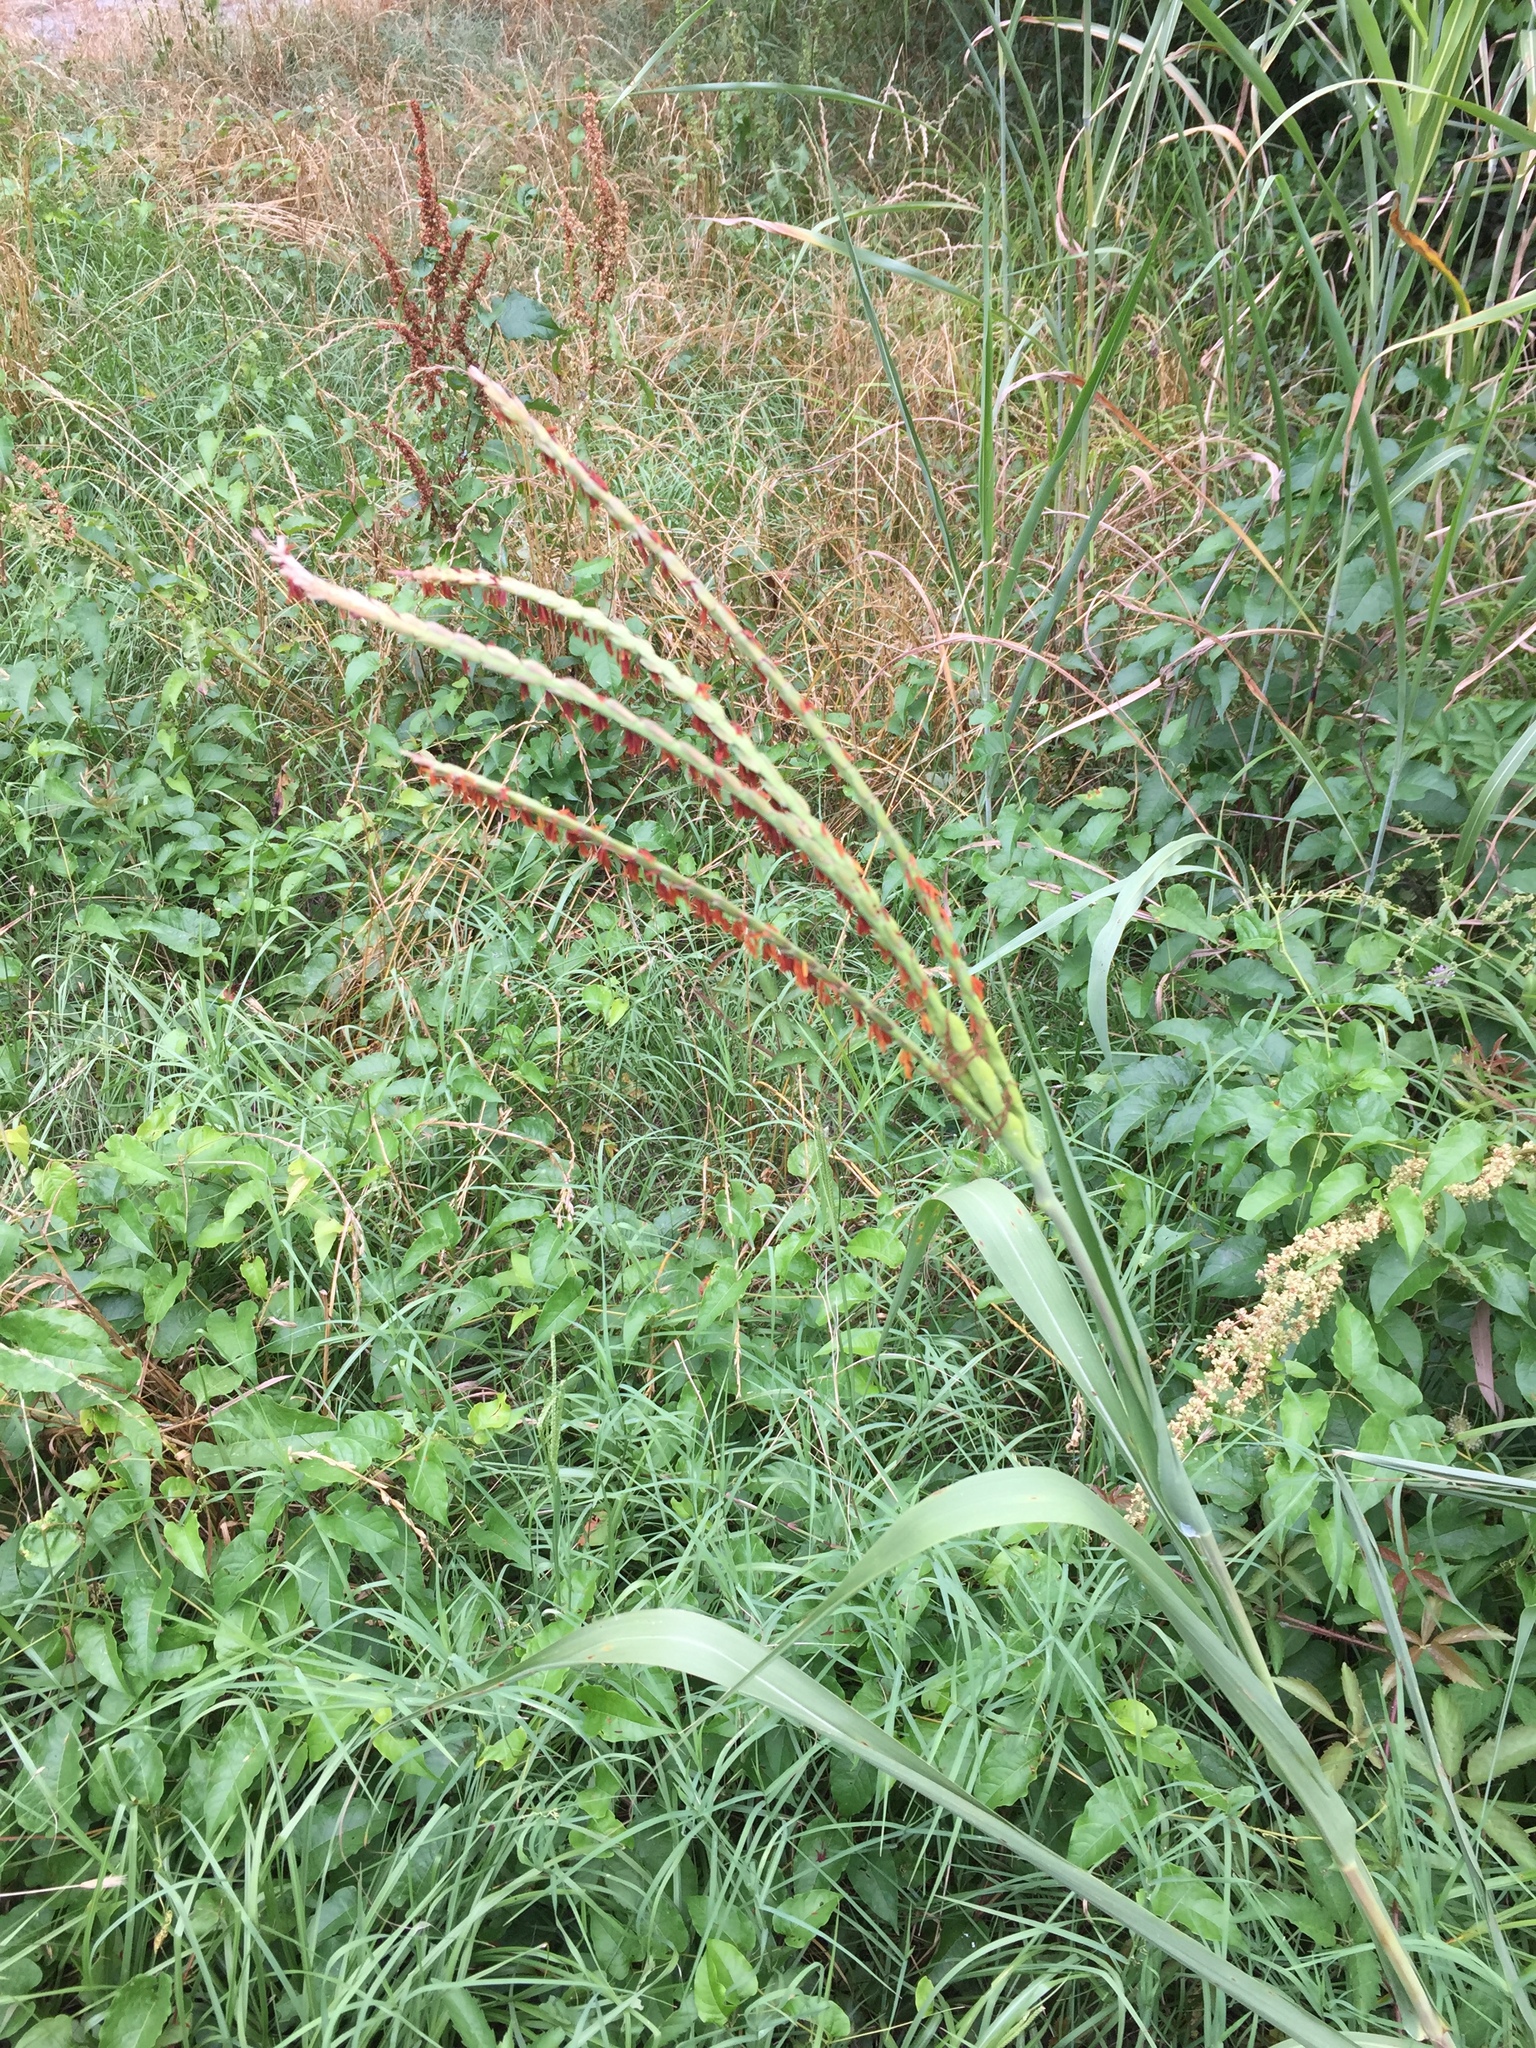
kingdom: Plantae
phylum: Tracheophyta
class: Liliopsida
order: Poales
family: Poaceae
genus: Tripsacum
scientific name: Tripsacum dactyloides
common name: Buffalo-grass
